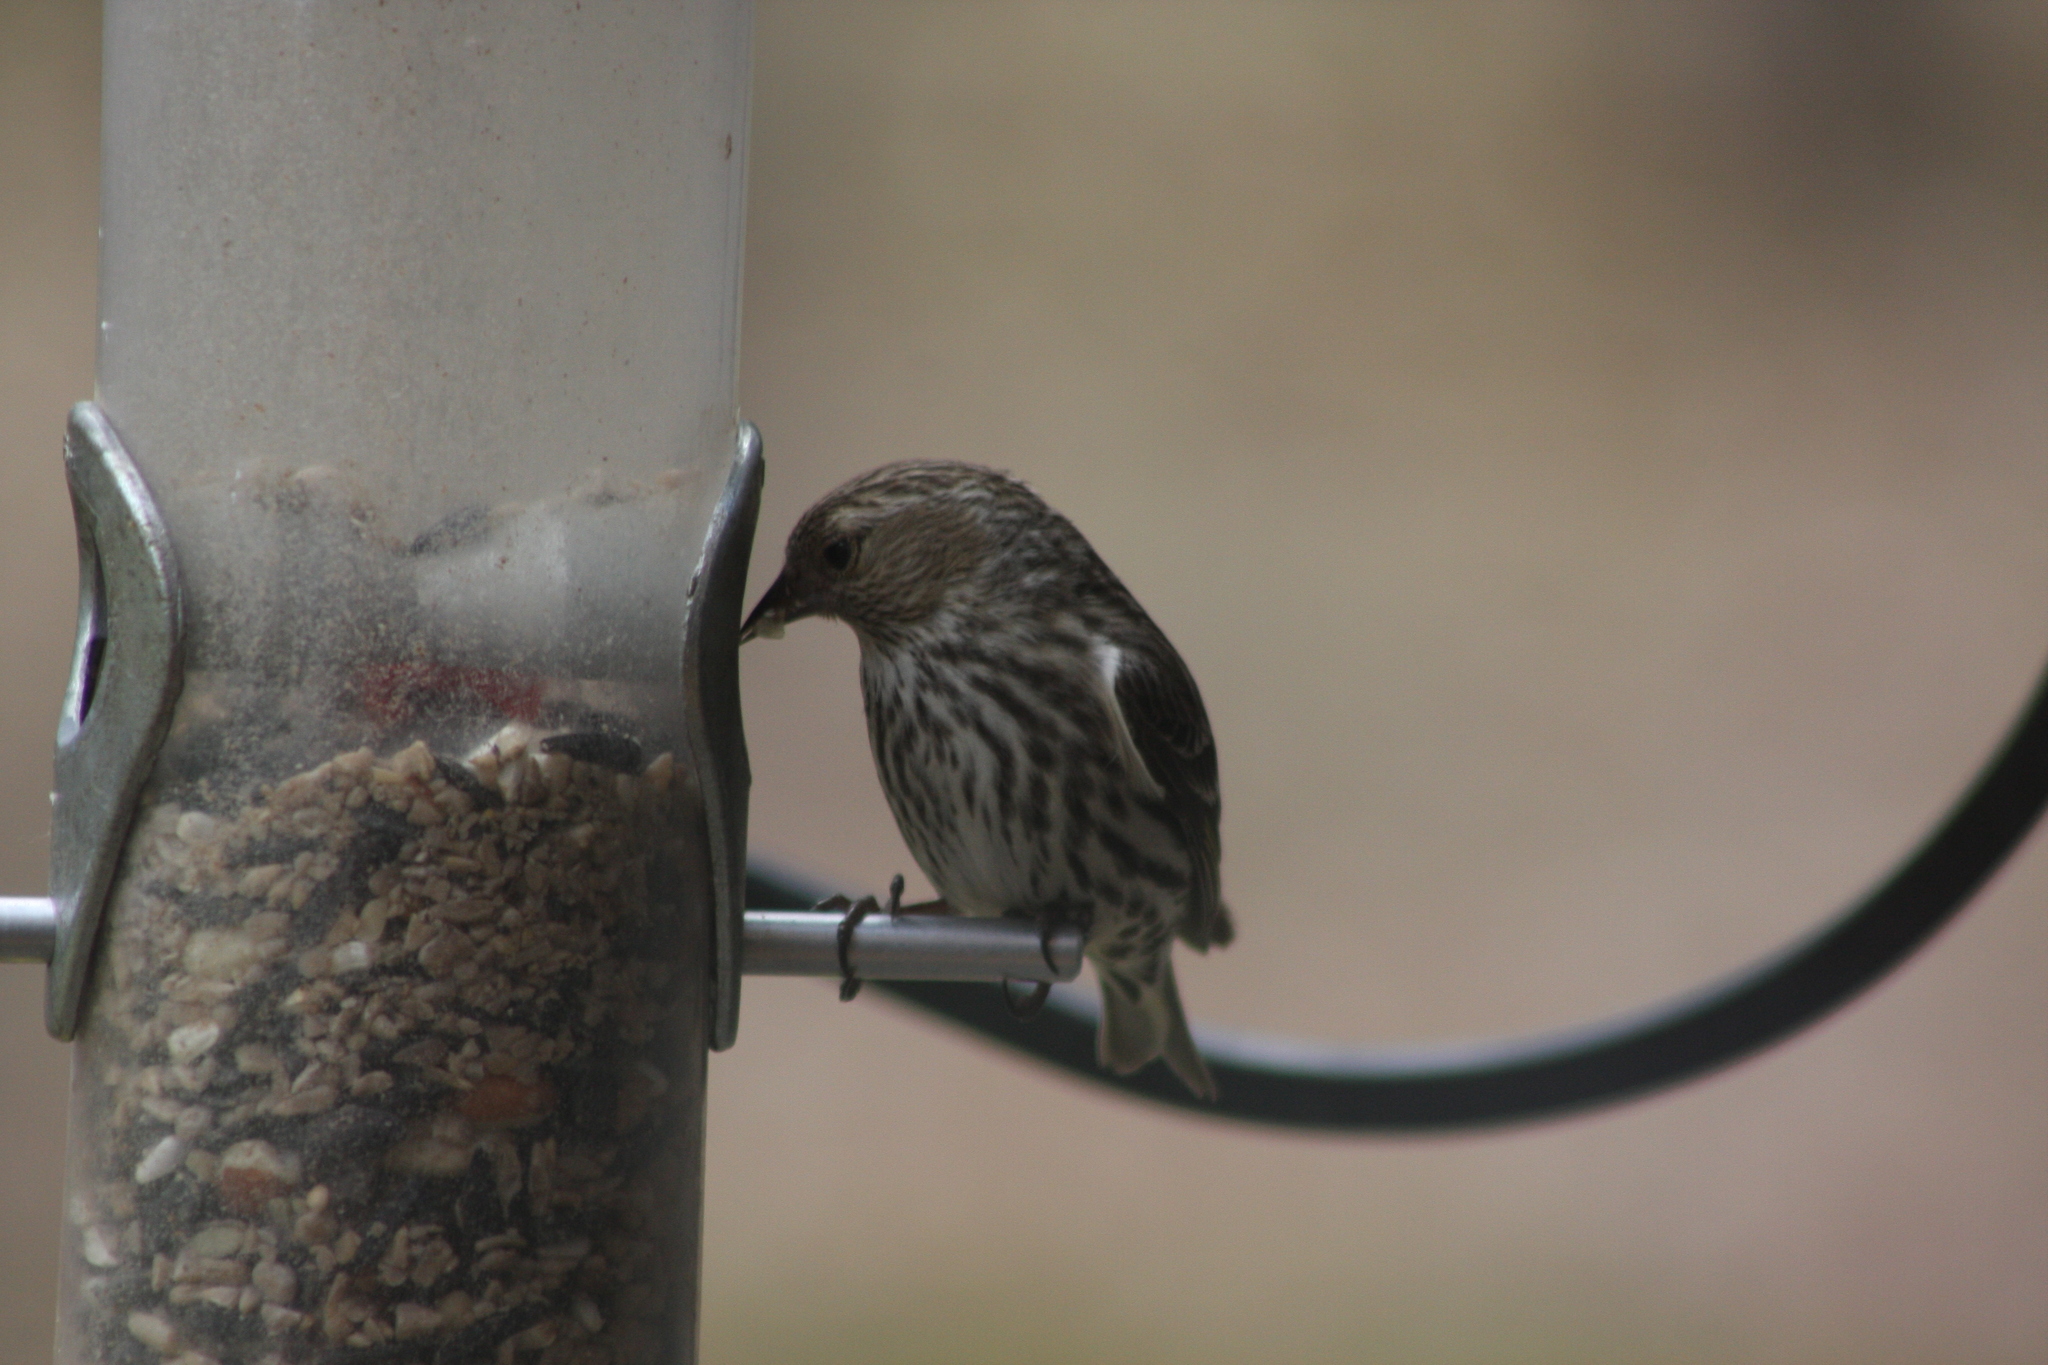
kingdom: Animalia
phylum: Chordata
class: Aves
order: Passeriformes
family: Fringillidae
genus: Spinus
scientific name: Spinus pinus
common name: Pine siskin
